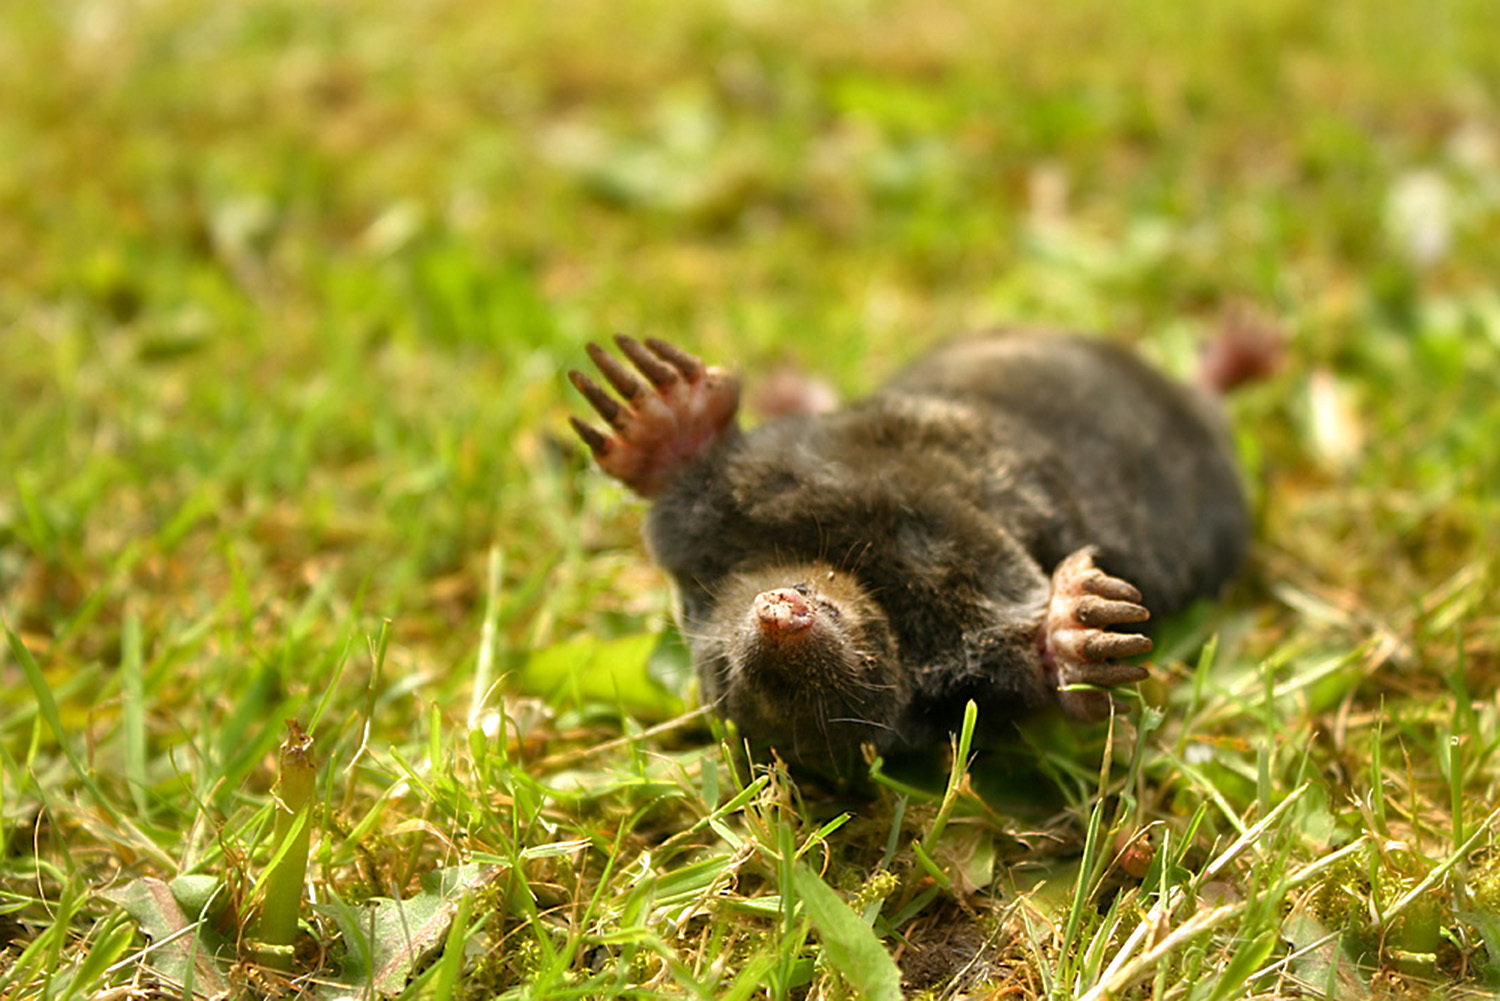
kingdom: Animalia
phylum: Chordata
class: Mammalia
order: Soricomorpha
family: Talpidae
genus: Talpa
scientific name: Talpa europaea
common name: European mole
